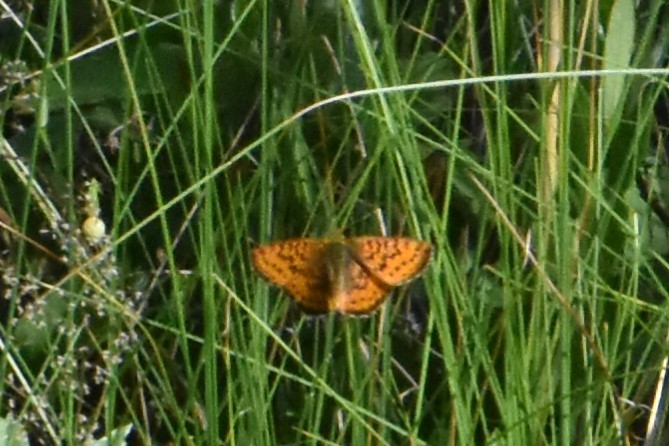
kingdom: Animalia
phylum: Arthropoda
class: Insecta
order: Lepidoptera
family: Nymphalidae
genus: Boloria
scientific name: Boloria aquilonaris
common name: Cranberry fritillary
